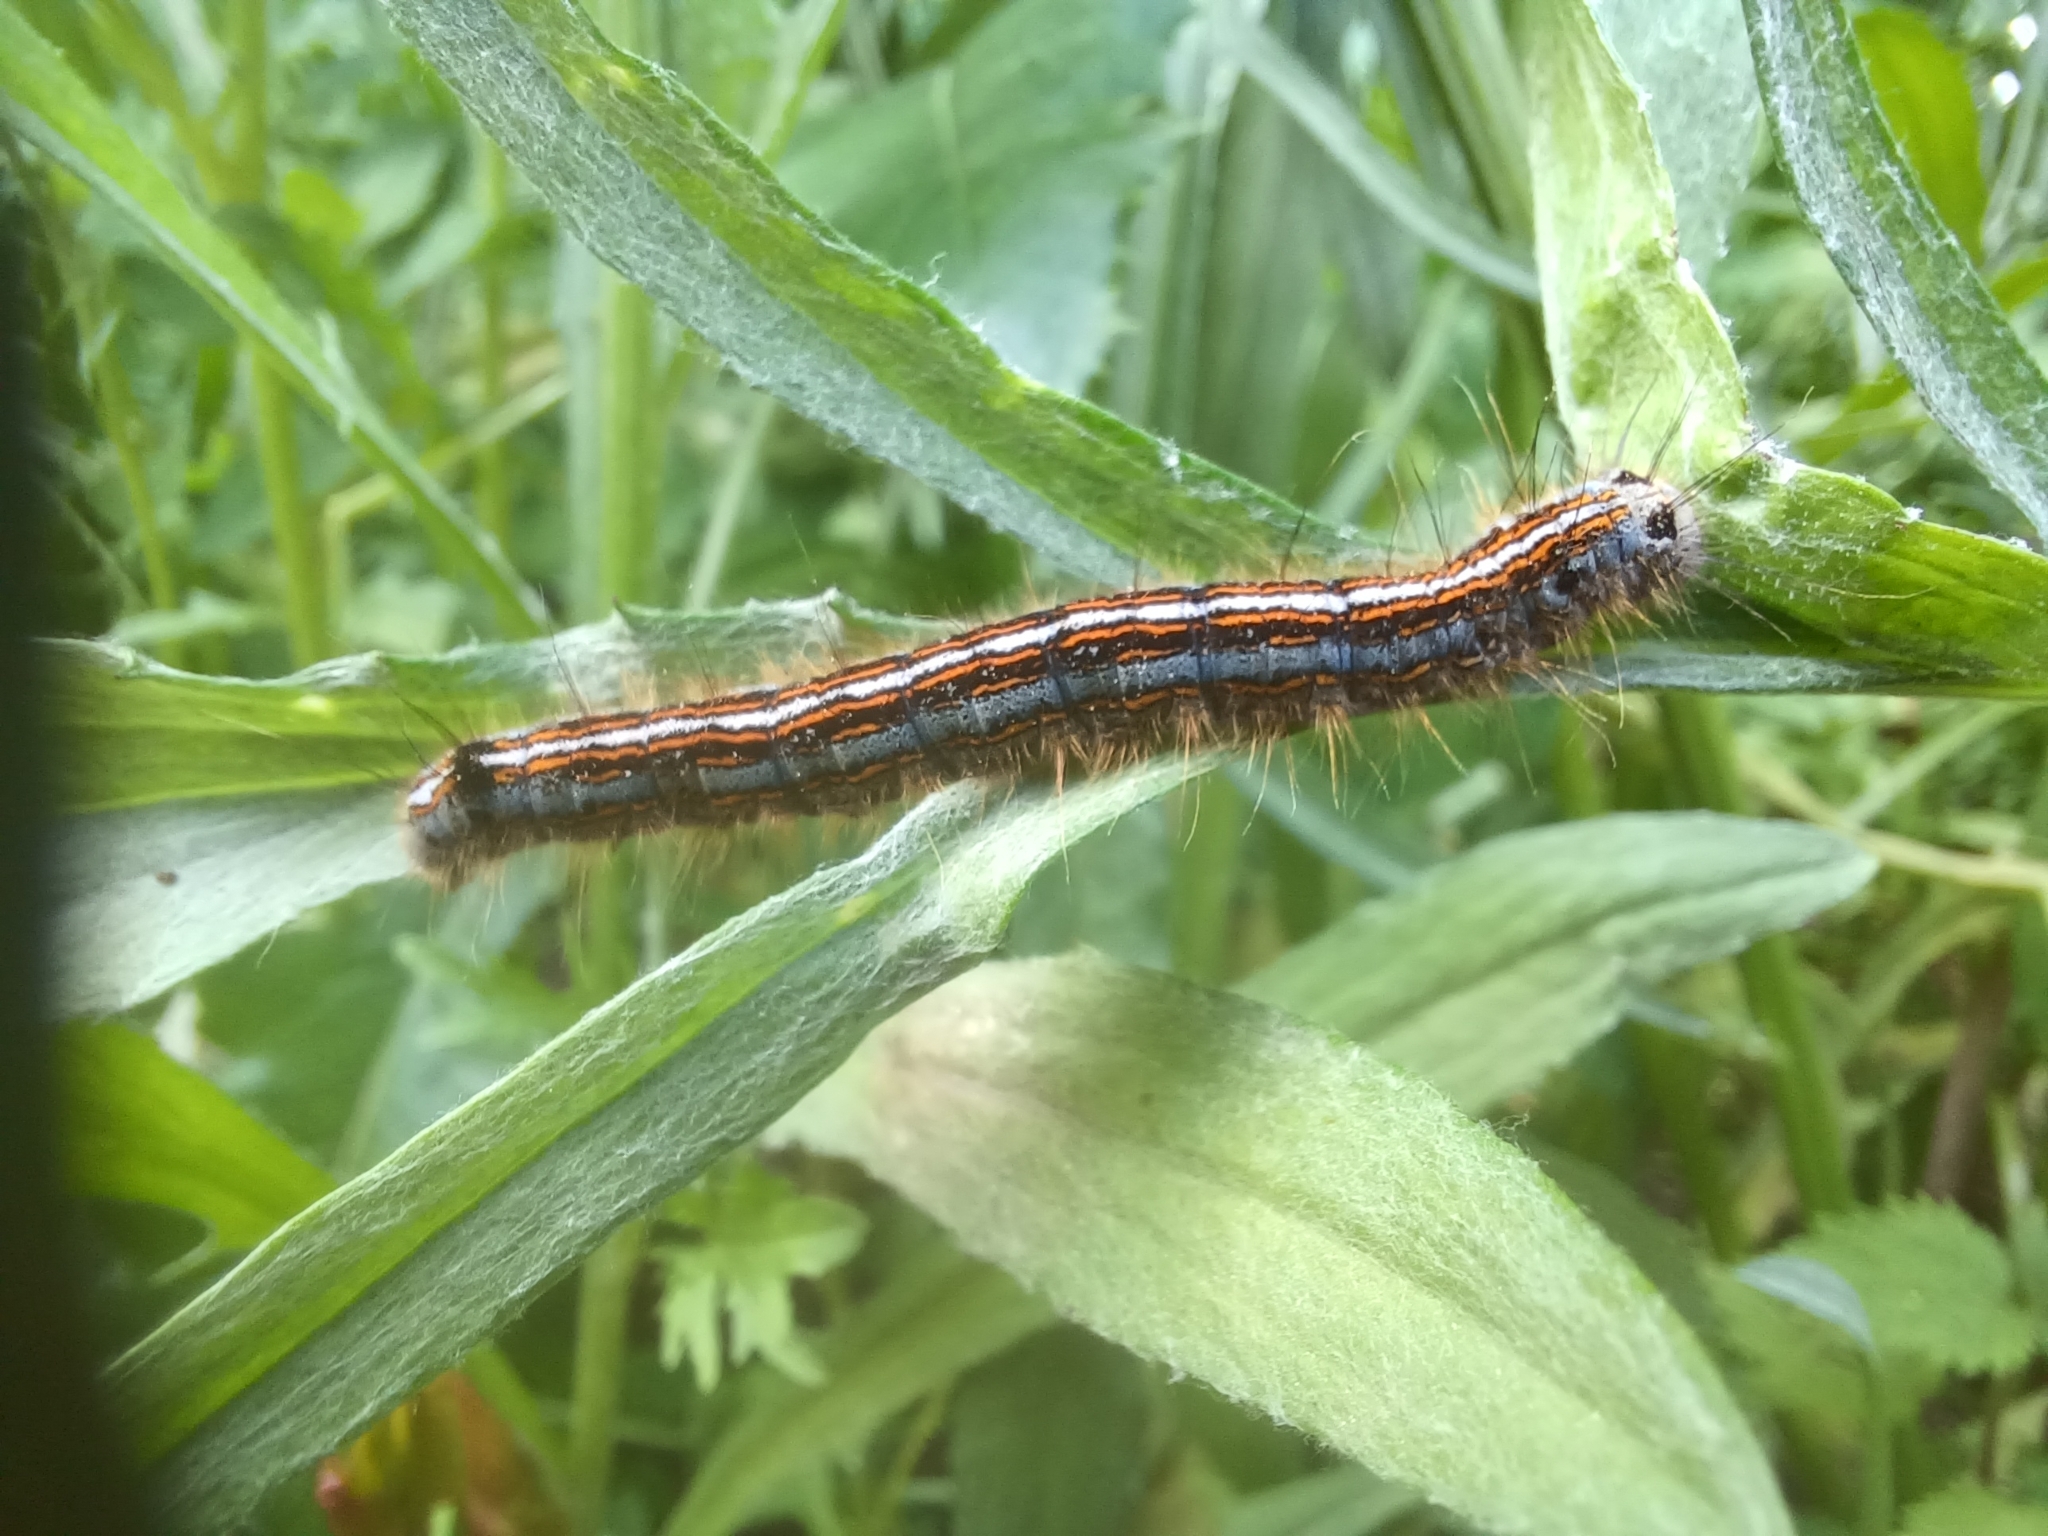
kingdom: Animalia
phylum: Arthropoda
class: Insecta
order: Lepidoptera
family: Lasiocampidae
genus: Malacosoma
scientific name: Malacosoma neustria
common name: The lackey
